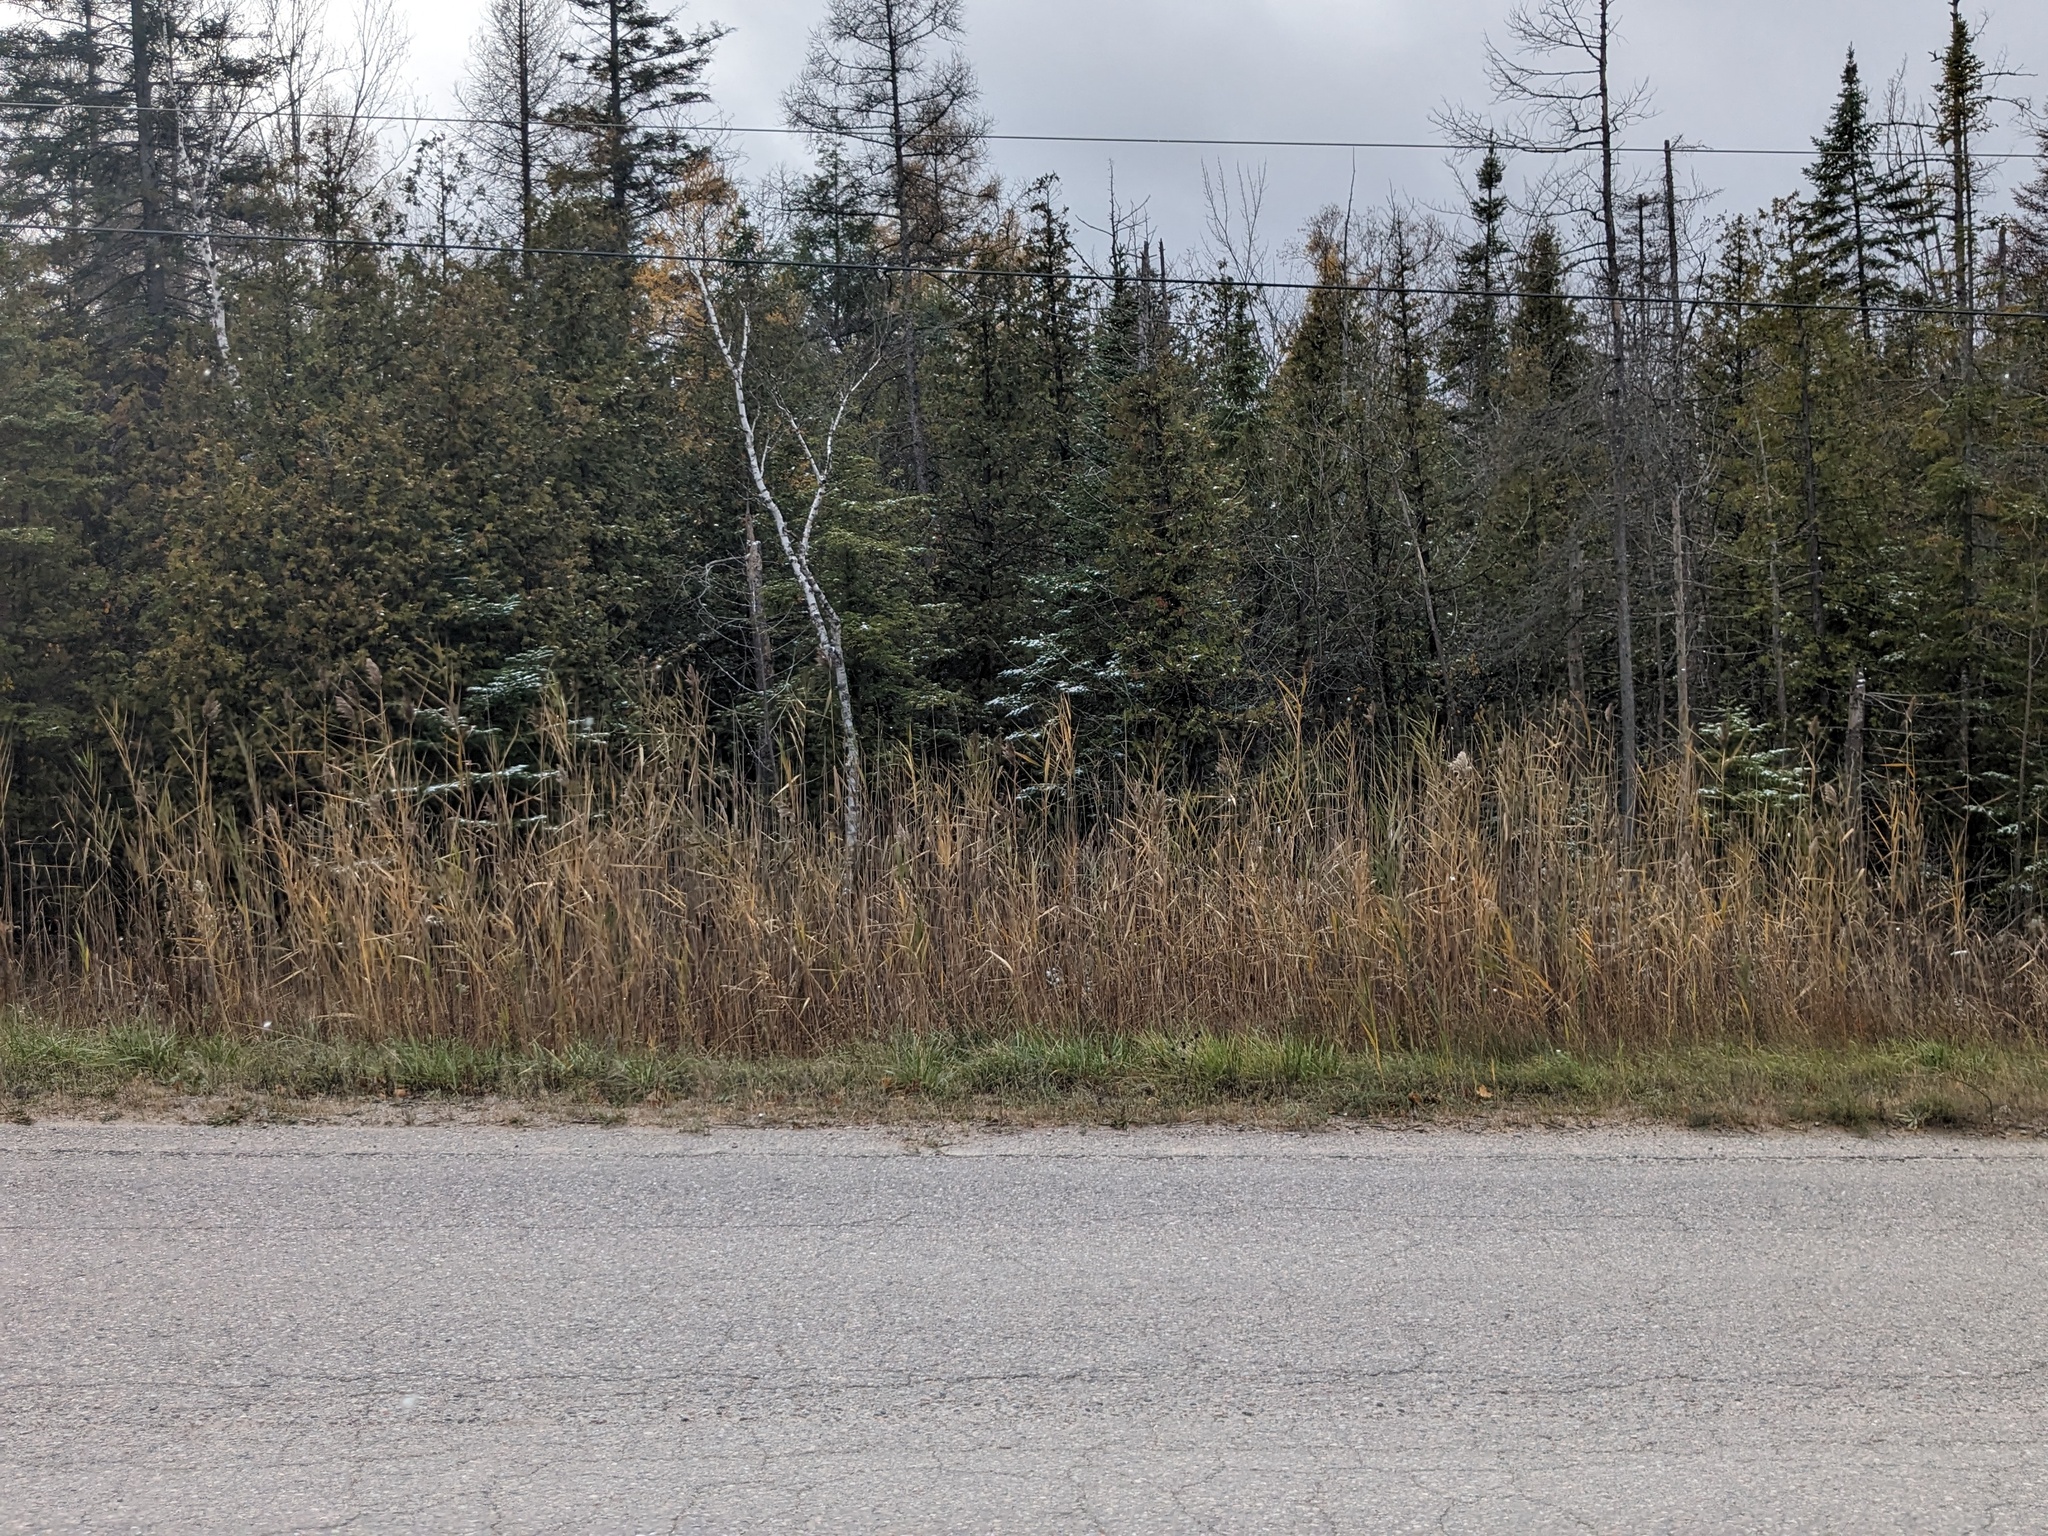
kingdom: Plantae
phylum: Tracheophyta
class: Liliopsida
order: Poales
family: Poaceae
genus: Phragmites
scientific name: Phragmites australis
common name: Common reed
